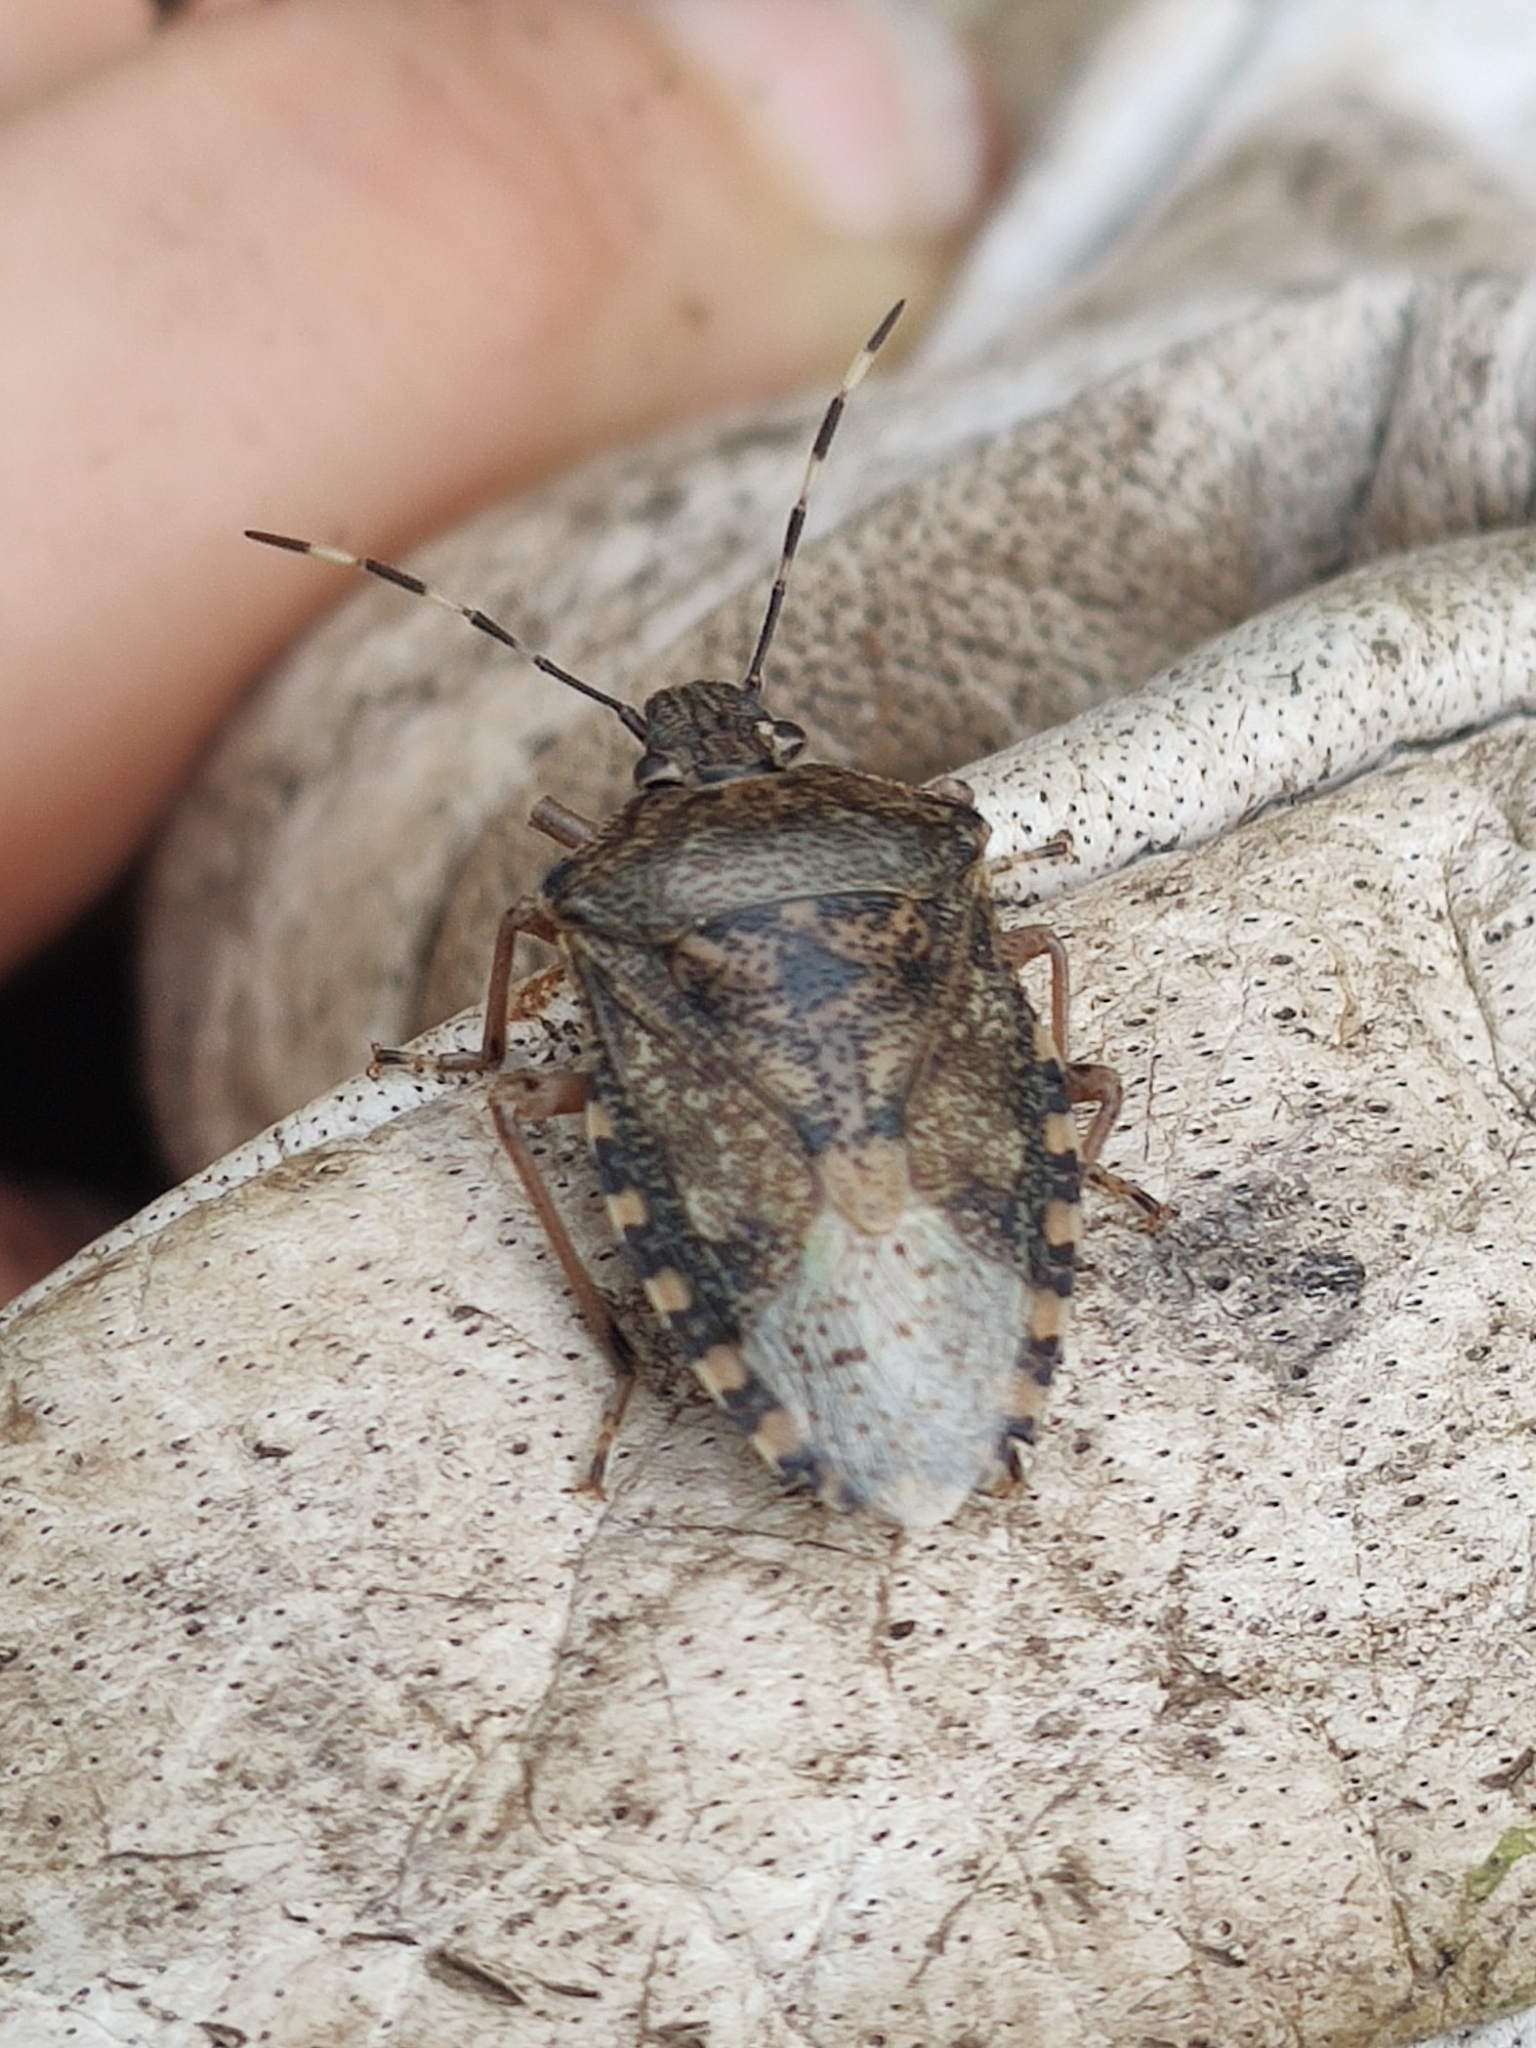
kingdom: Animalia
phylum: Arthropoda
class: Insecta
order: Hemiptera
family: Pentatomidae
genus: Rhaphigaster
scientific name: Rhaphigaster nebulosa
